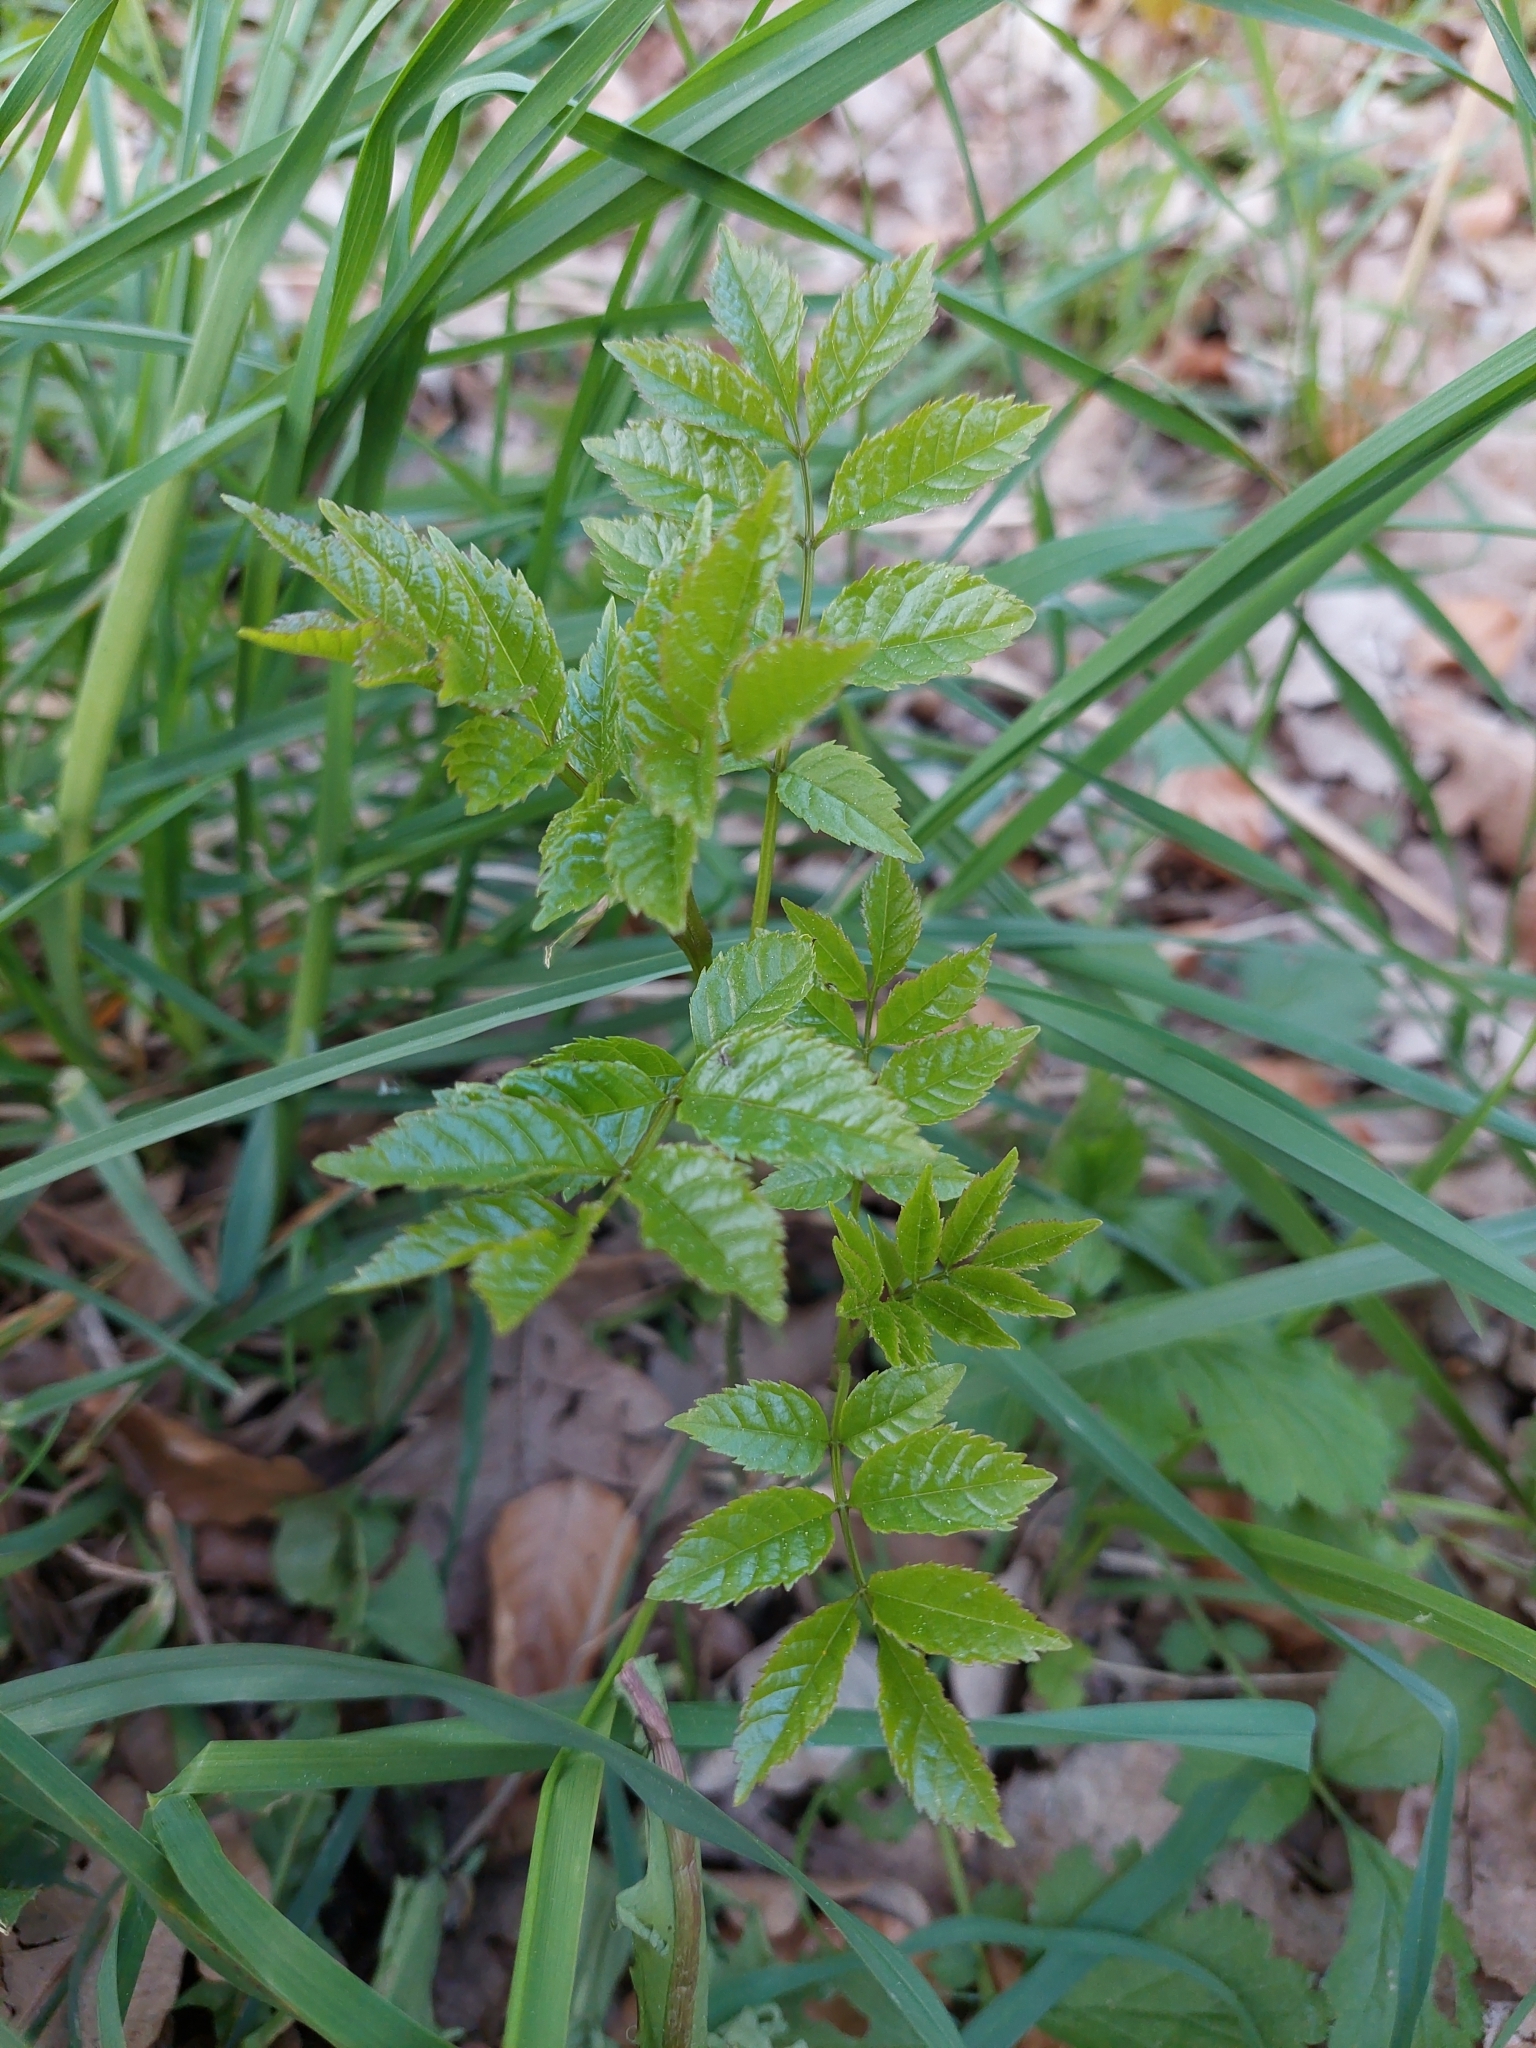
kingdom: Plantae
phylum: Tracheophyta
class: Magnoliopsida
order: Lamiales
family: Oleaceae
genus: Fraxinus
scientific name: Fraxinus excelsior
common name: European ash
